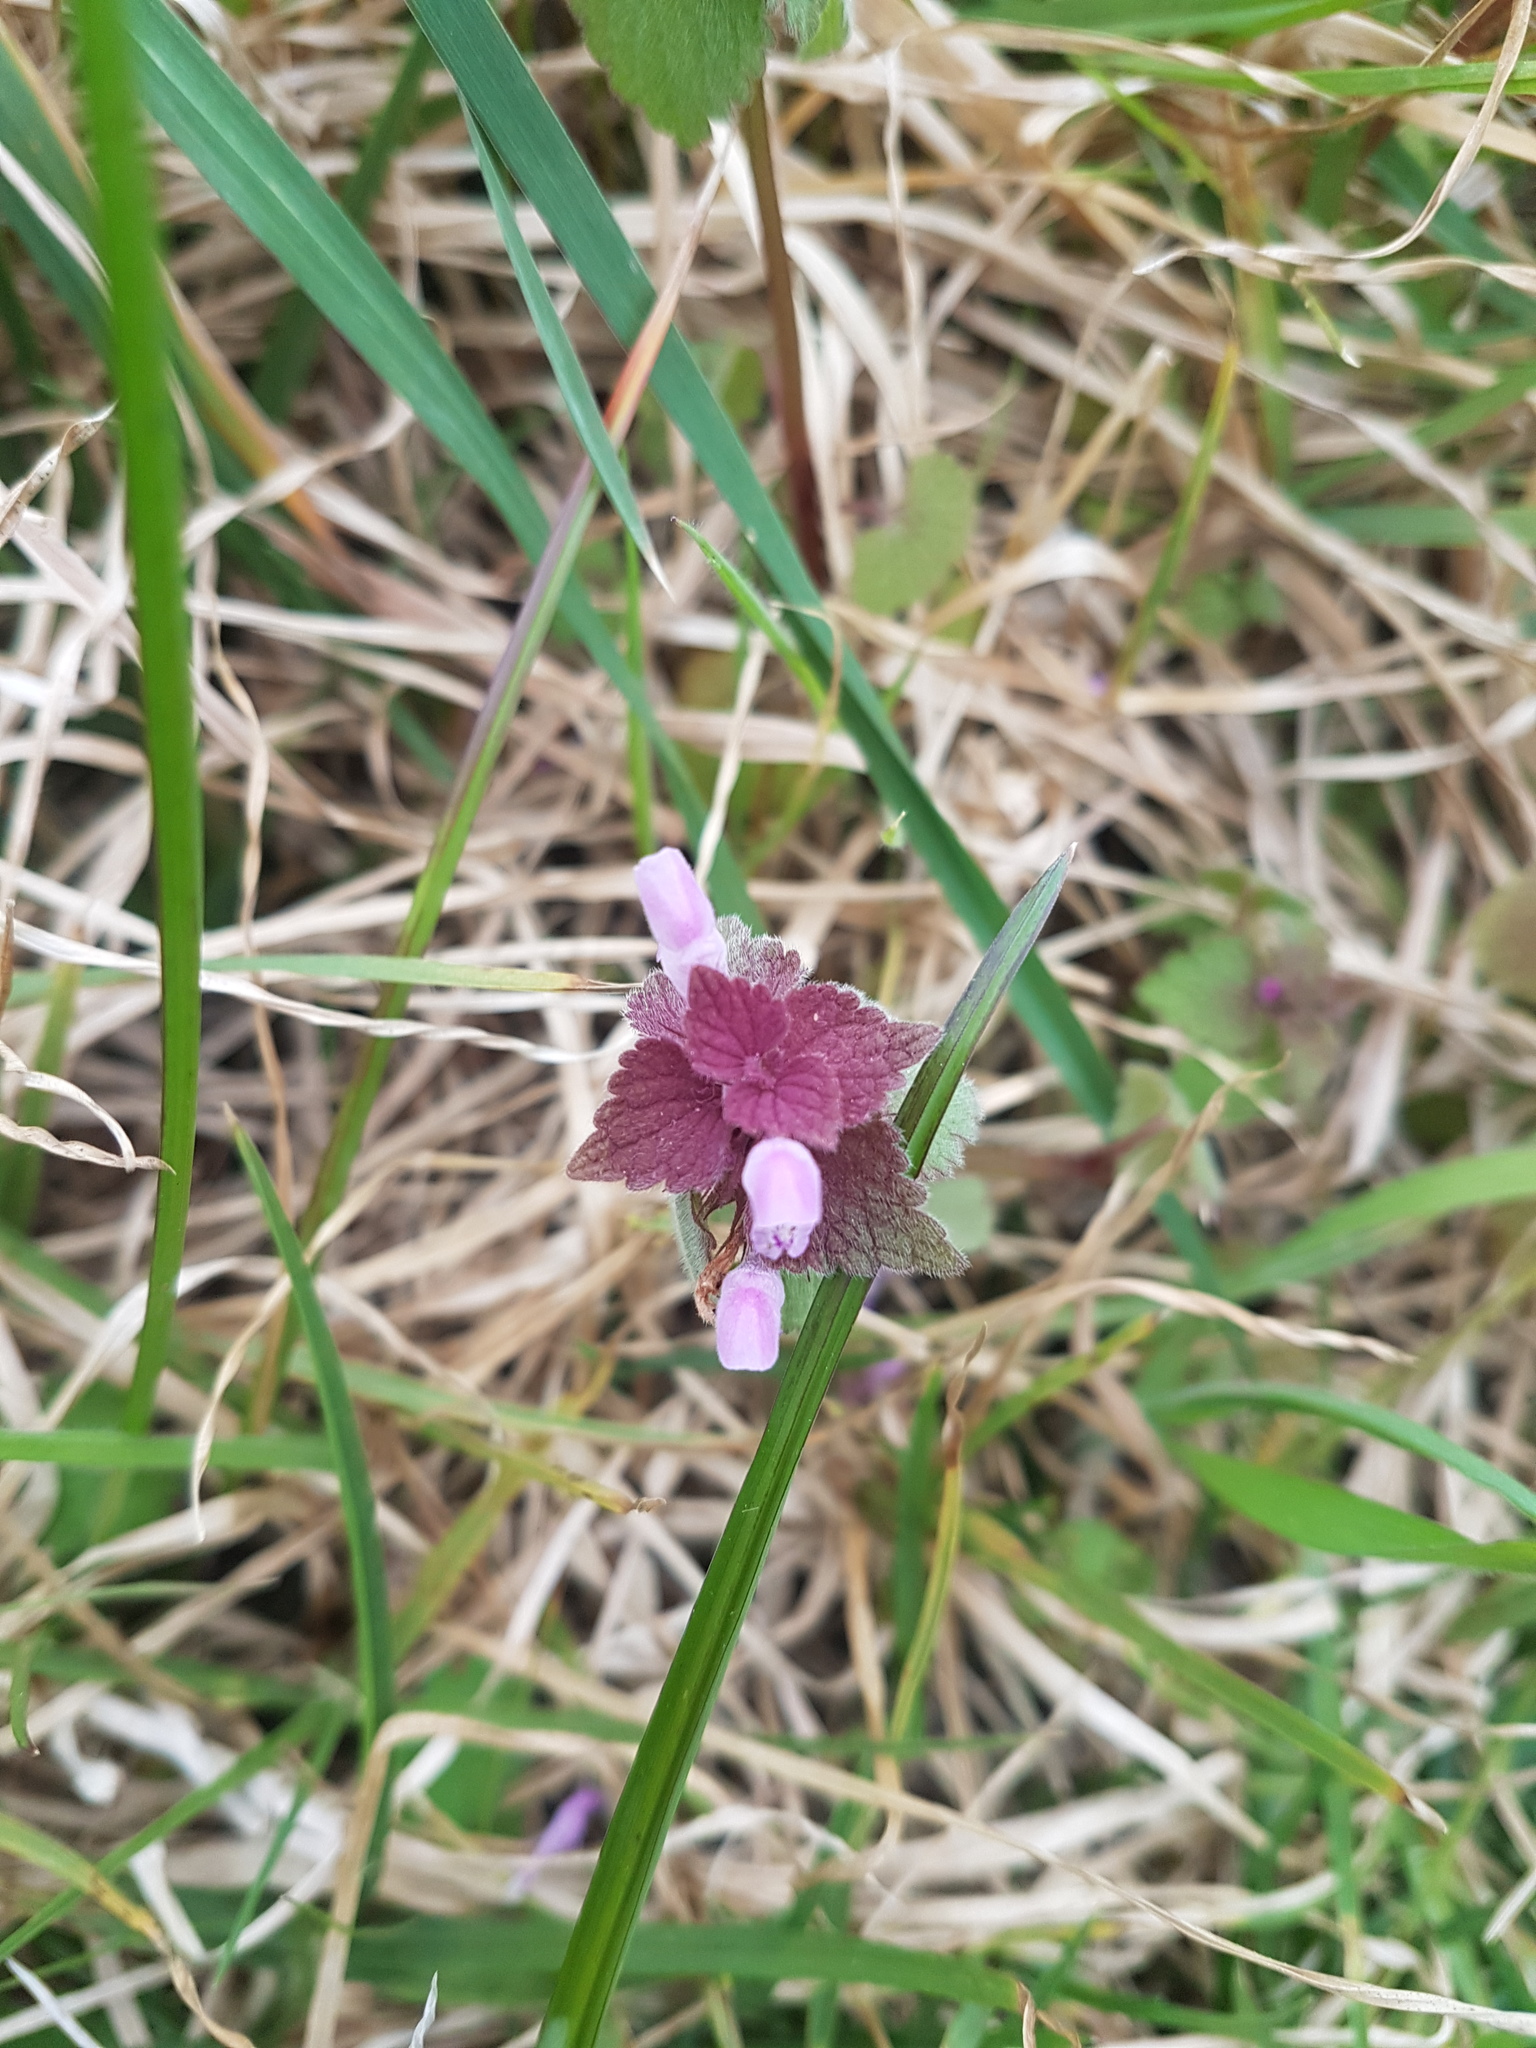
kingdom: Plantae
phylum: Tracheophyta
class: Magnoliopsida
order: Lamiales
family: Lamiaceae
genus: Lamium
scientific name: Lamium purpureum
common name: Red dead-nettle
